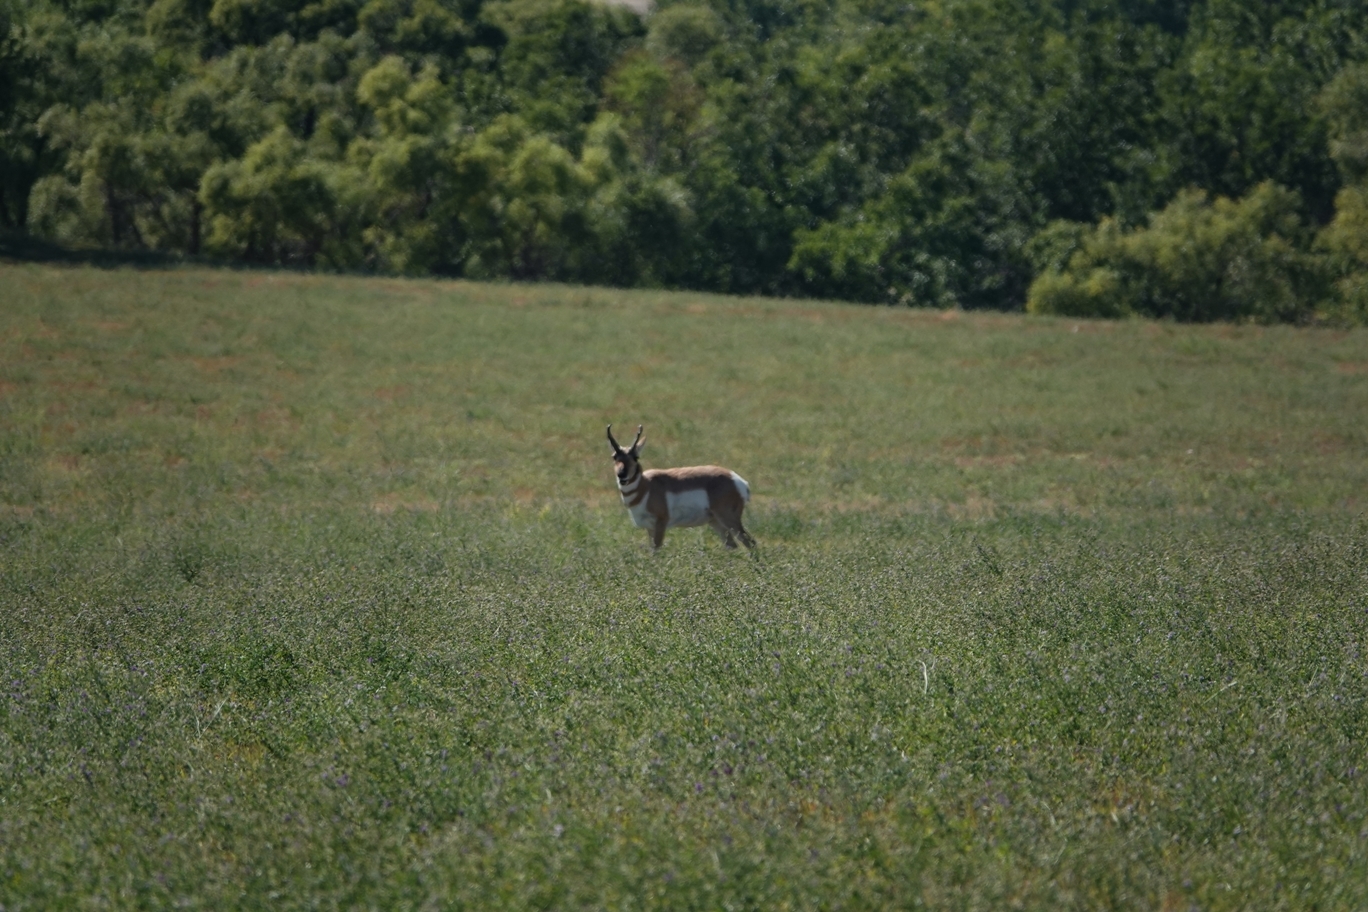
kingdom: Animalia
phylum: Chordata
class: Mammalia
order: Artiodactyla
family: Antilocapridae
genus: Antilocapra
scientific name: Antilocapra americana
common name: Pronghorn
